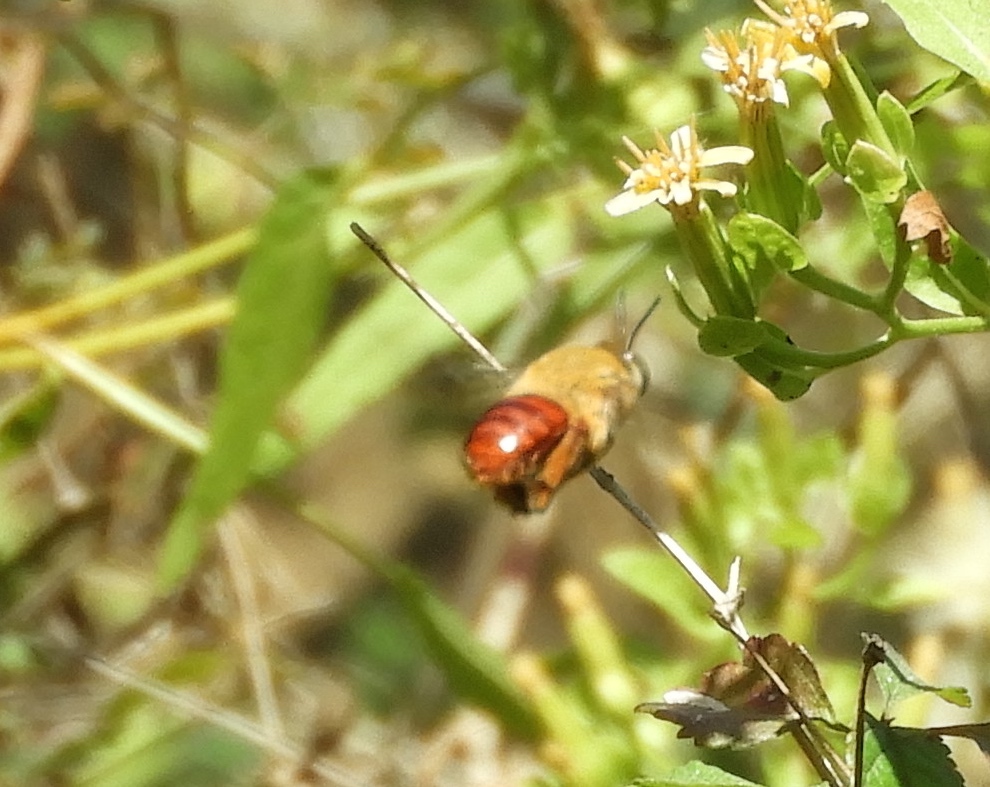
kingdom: Animalia
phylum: Arthropoda
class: Insecta
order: Hymenoptera
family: Apidae
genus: Centris
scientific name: Centris
